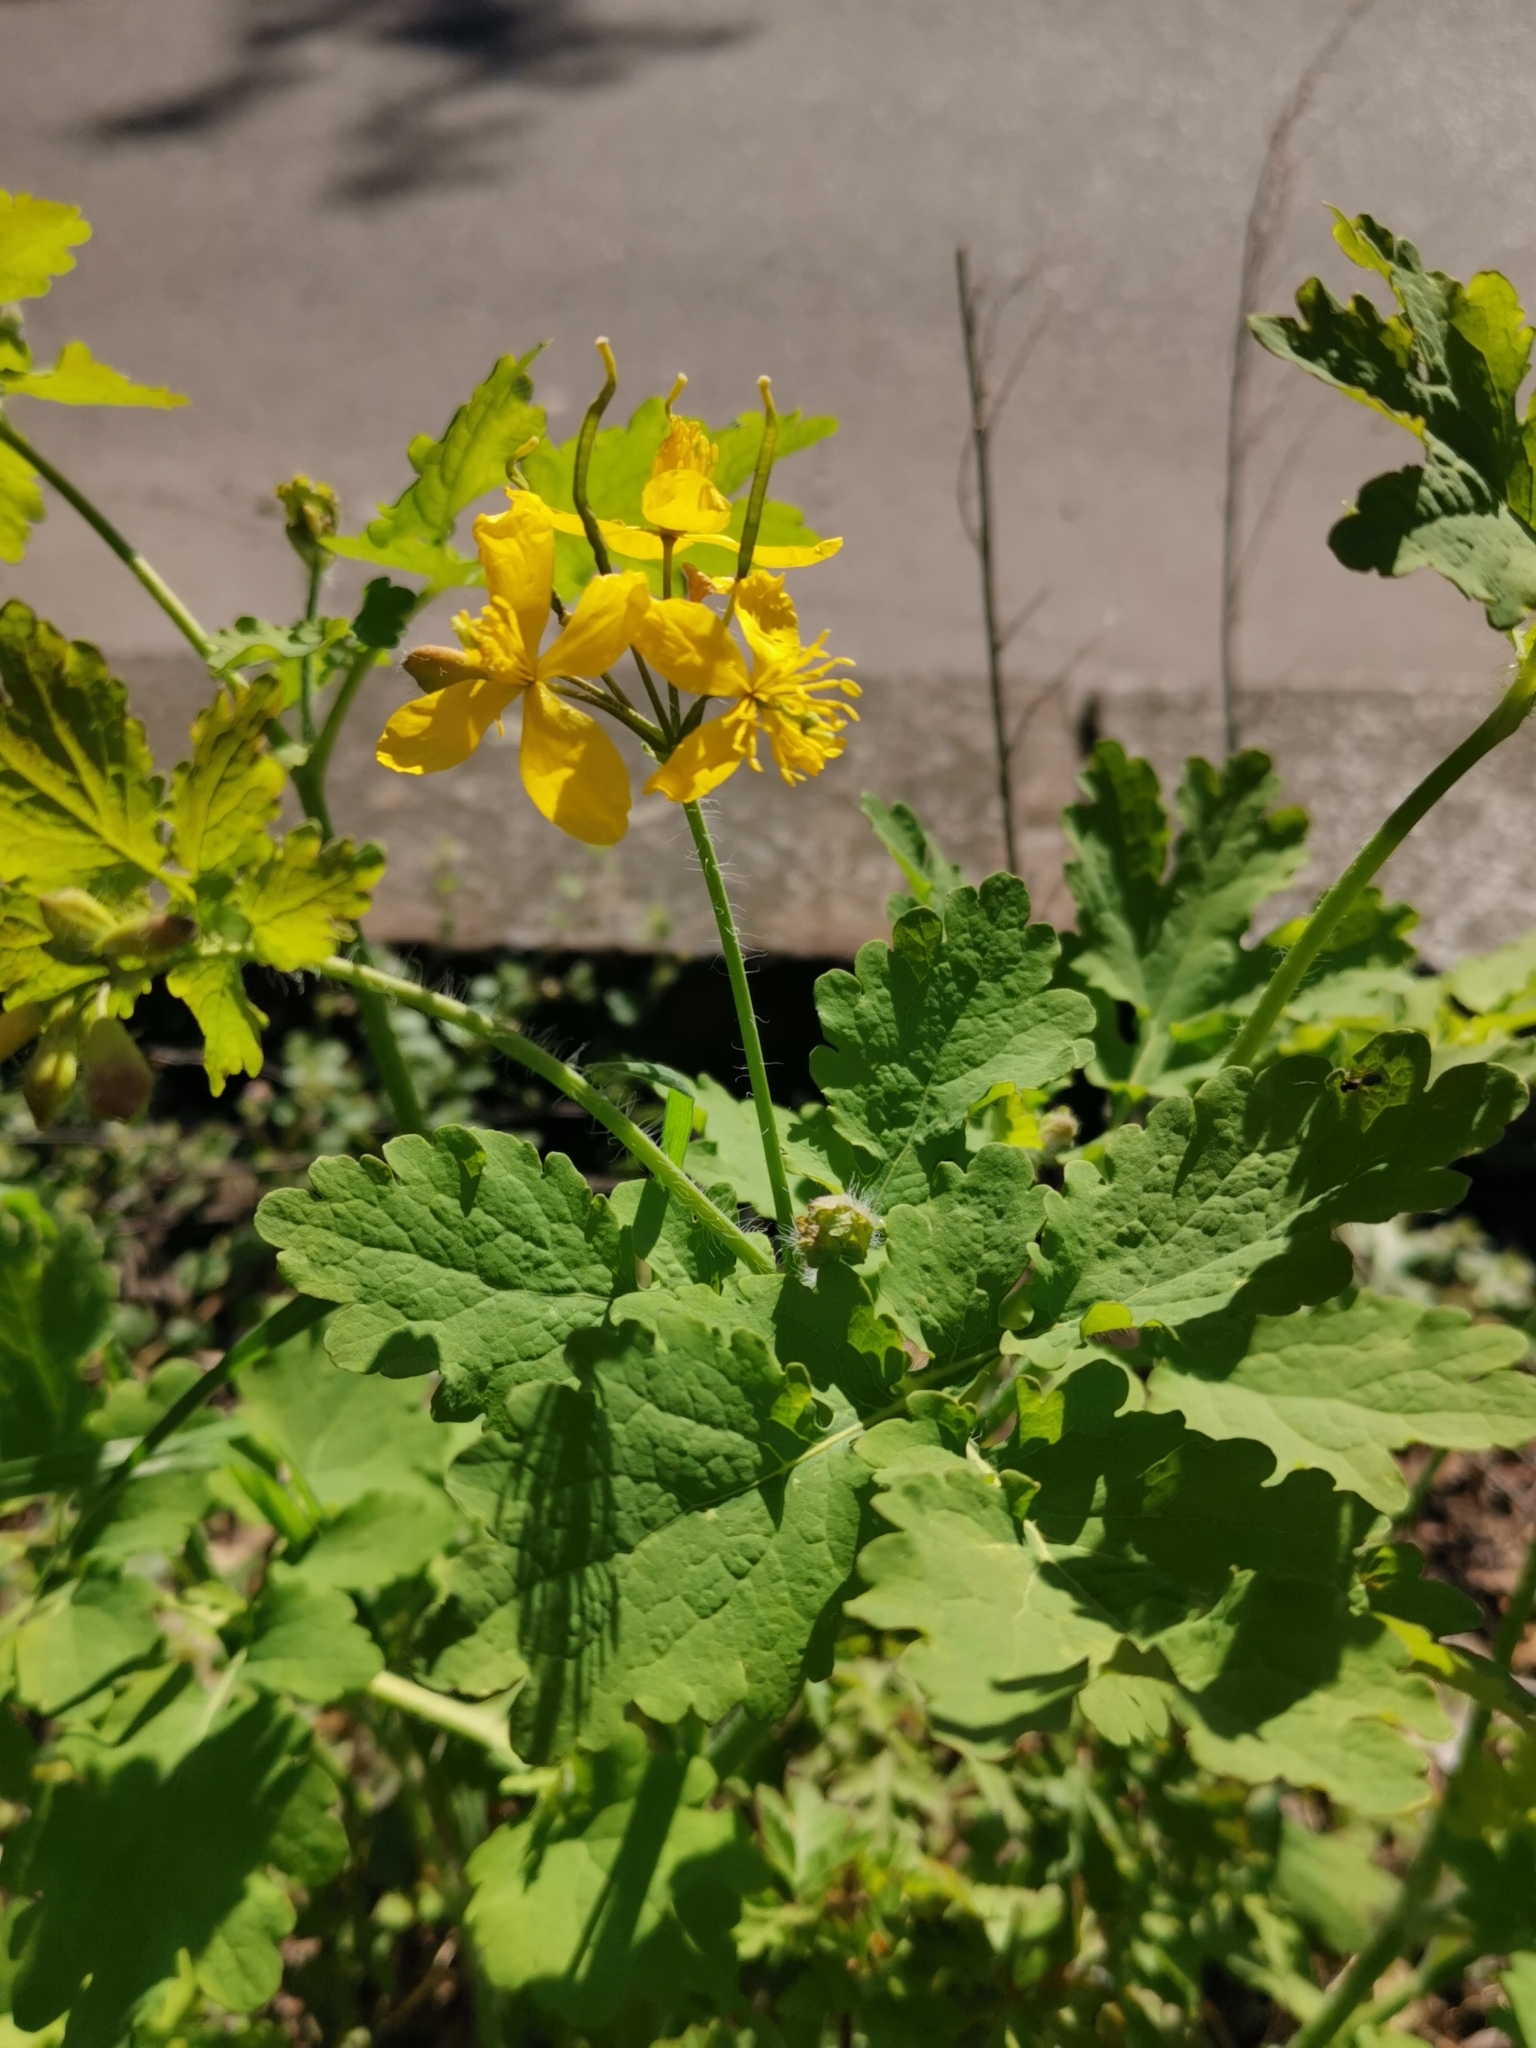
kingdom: Plantae
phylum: Tracheophyta
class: Magnoliopsida
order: Ranunculales
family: Papaveraceae
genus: Chelidonium
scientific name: Chelidonium majus
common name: Greater celandine
